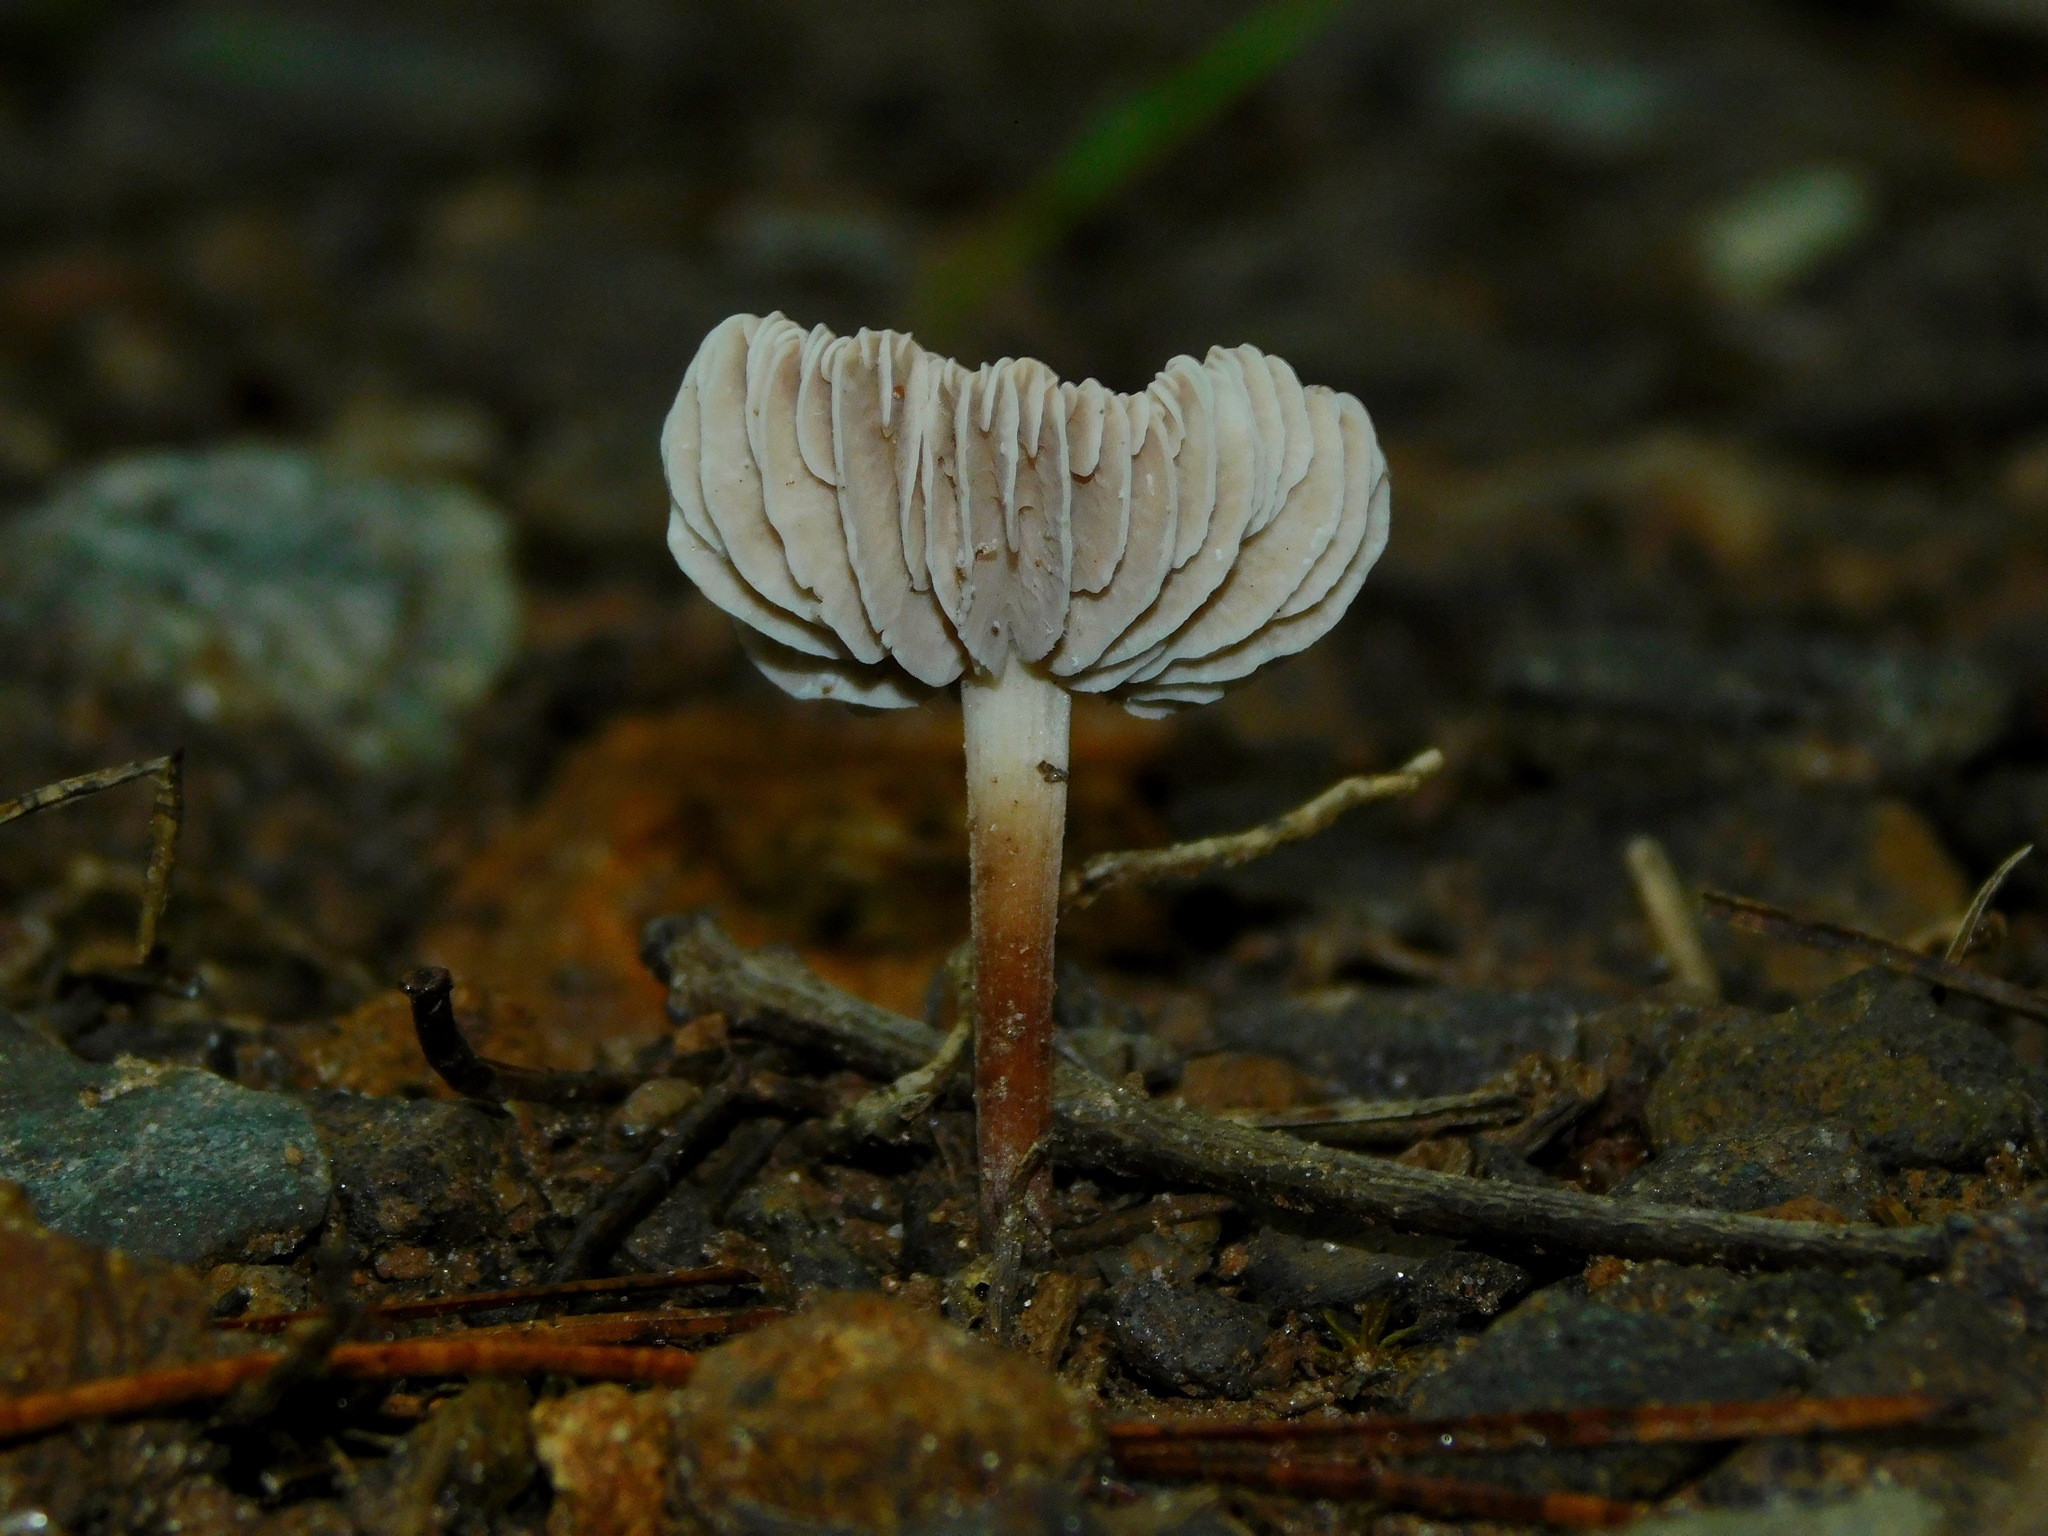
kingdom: Fungi
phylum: Basidiomycota
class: Agaricomycetes
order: Agaricales
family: Omphalotaceae
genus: Collybiopsis
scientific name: Collybiopsis villosipes
